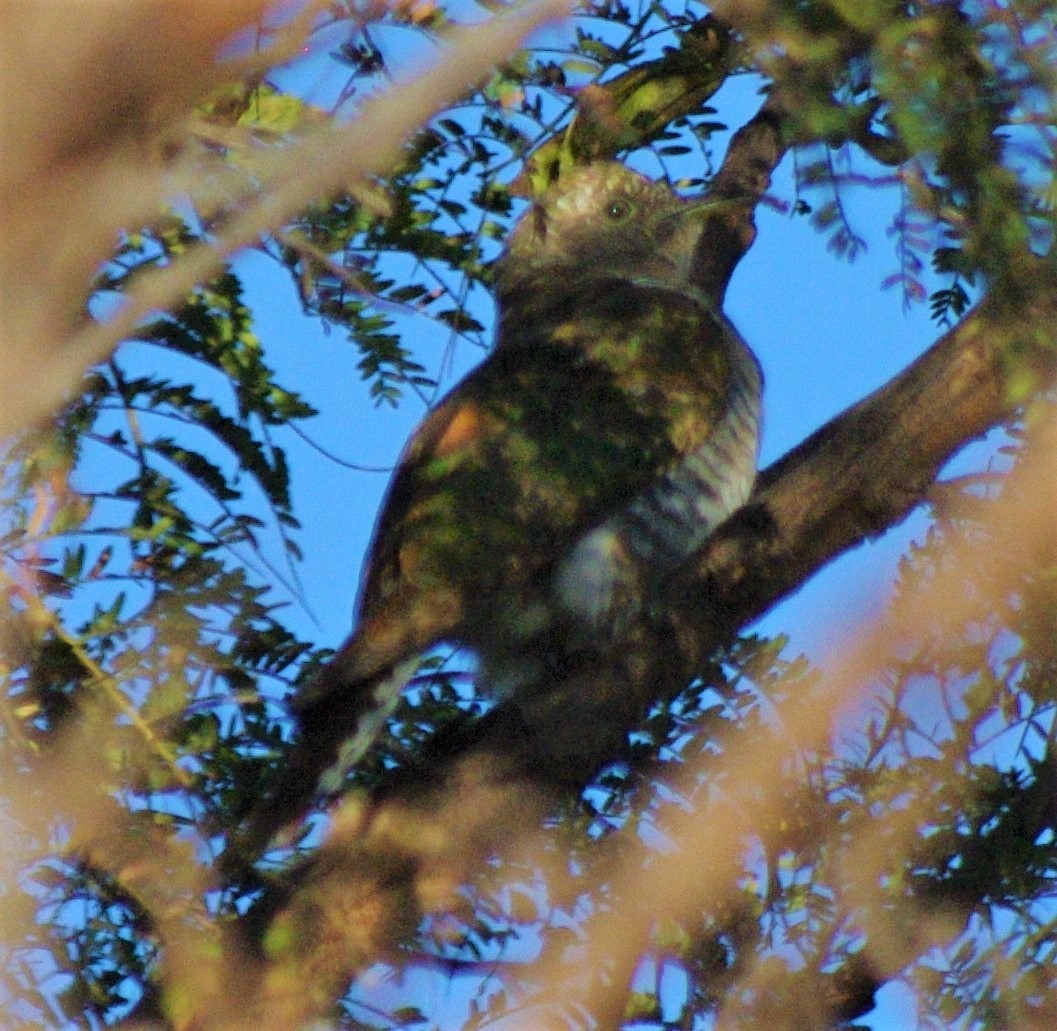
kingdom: Animalia
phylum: Chordata
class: Aves
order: Cuculiformes
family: Cuculidae
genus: Chrysococcyx
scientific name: Chrysococcyx klaas
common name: Klaas's cuckoo
